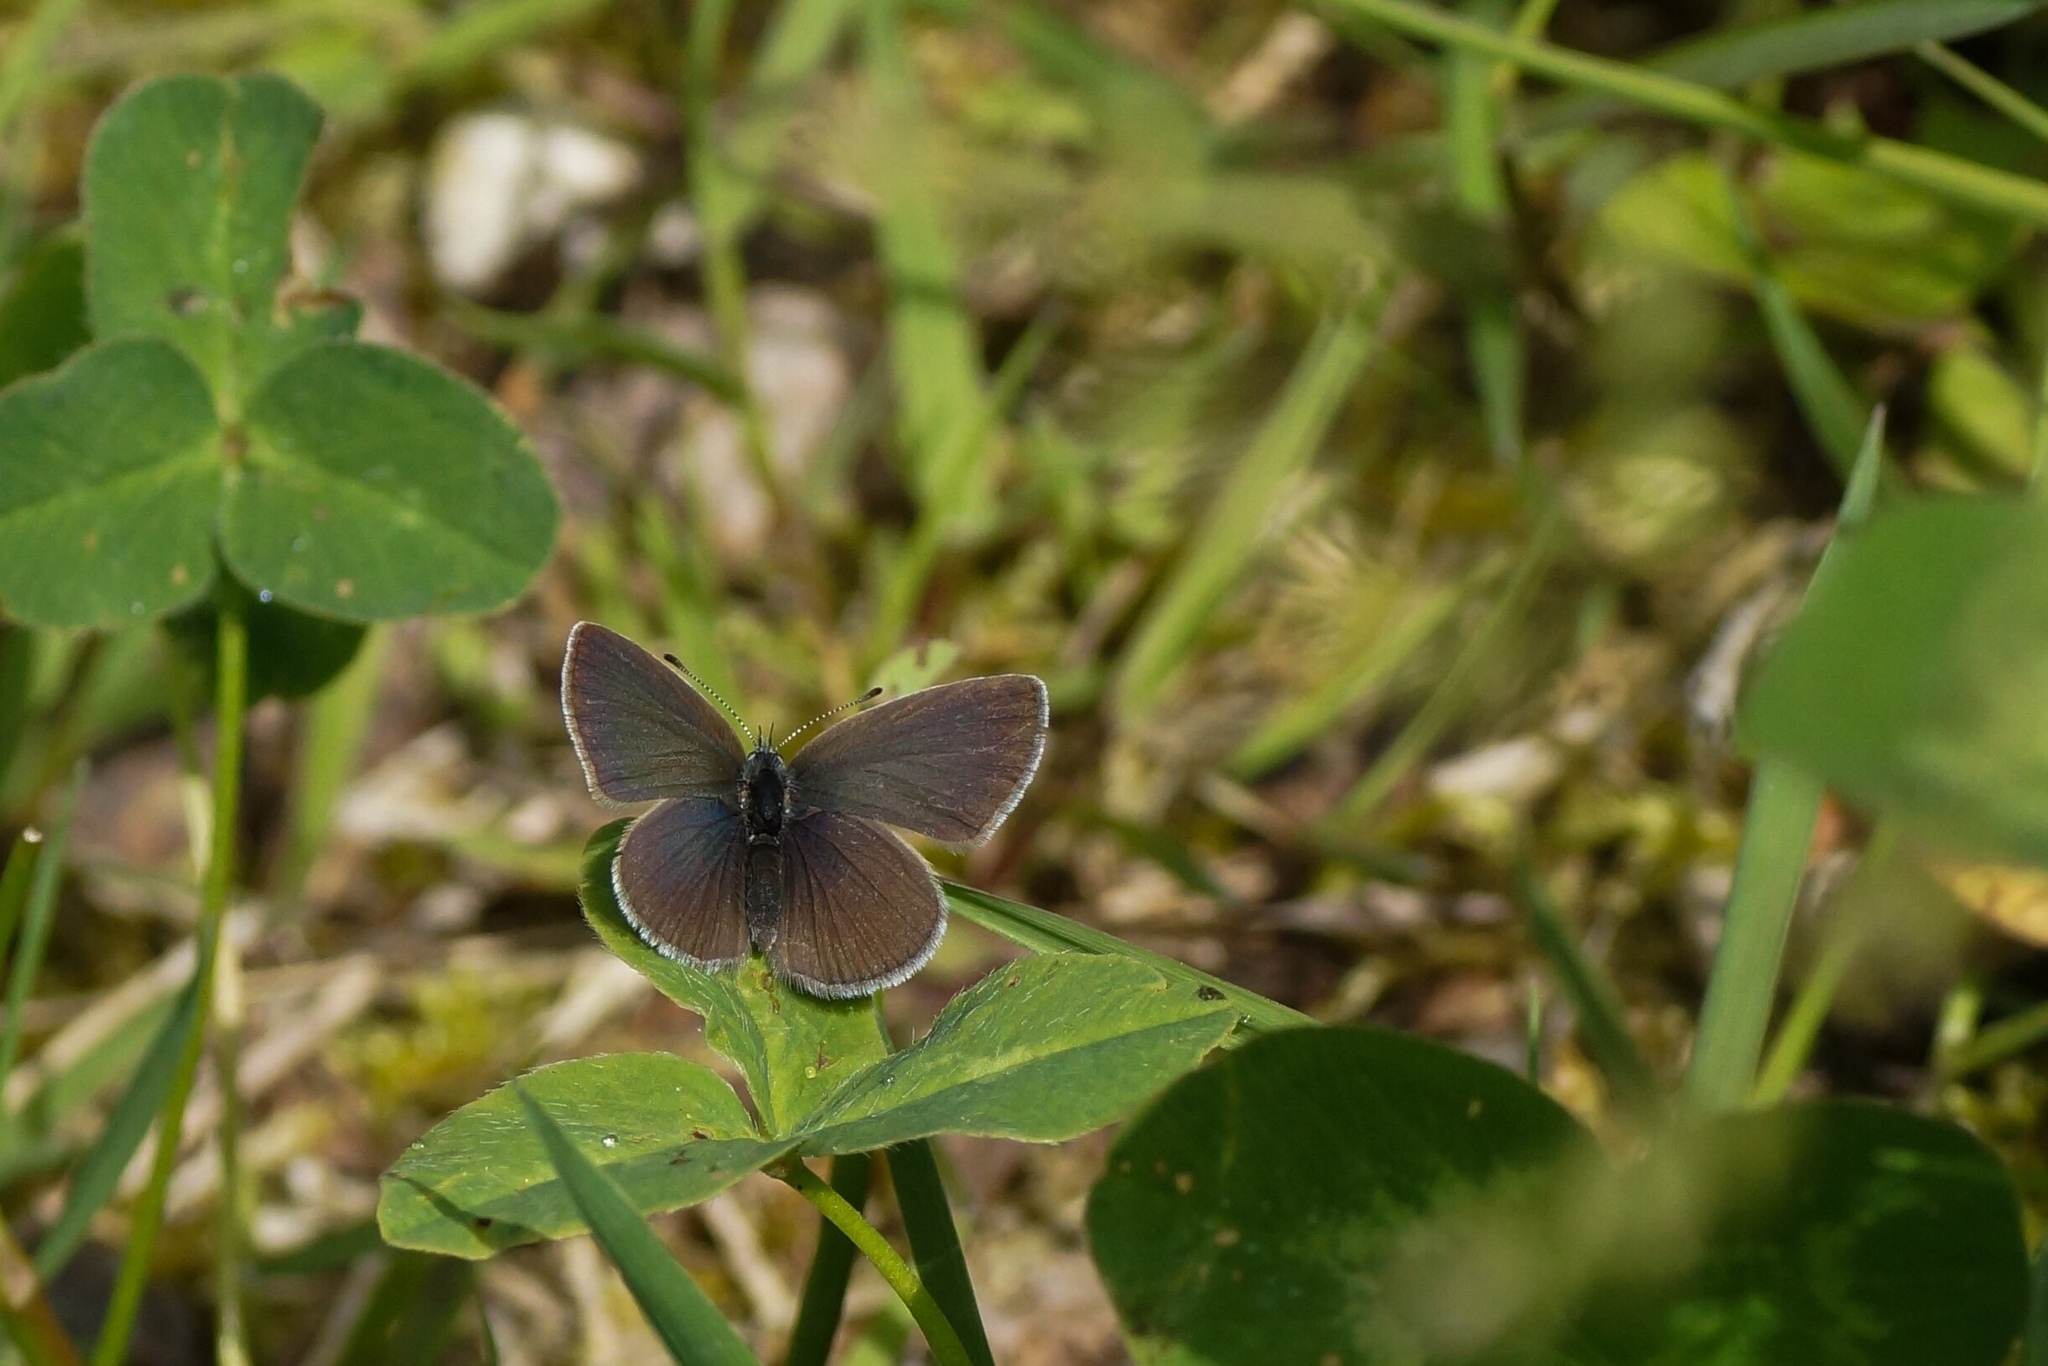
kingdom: Animalia
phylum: Arthropoda
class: Insecta
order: Lepidoptera
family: Lycaenidae
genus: Cupido
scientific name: Cupido minimus
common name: Small blue
